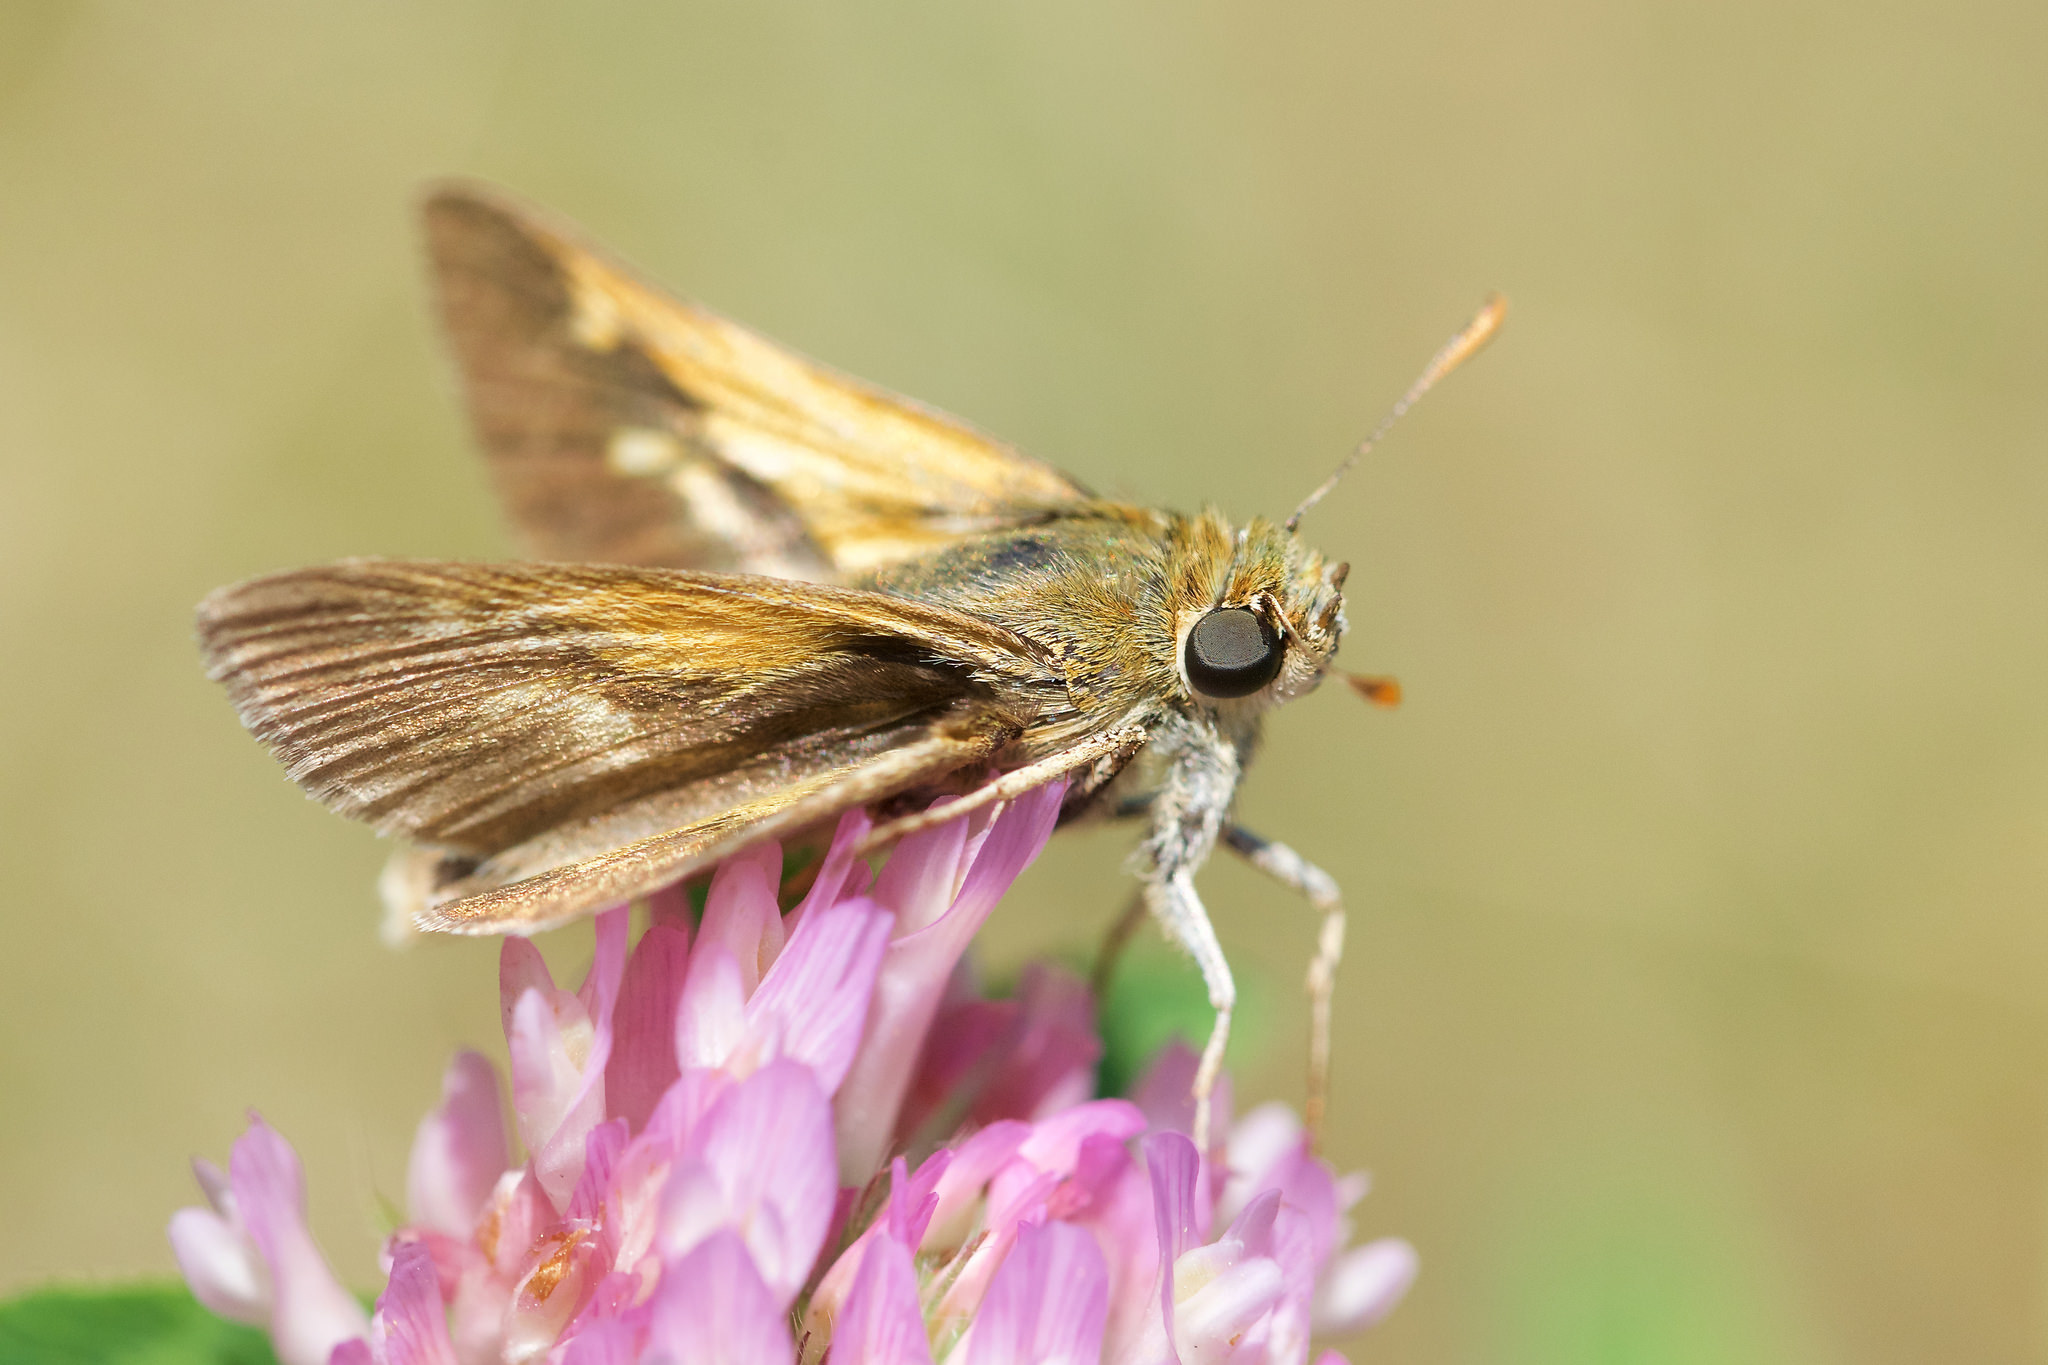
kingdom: Animalia
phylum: Arthropoda
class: Insecta
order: Lepidoptera
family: Hesperiidae
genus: Polites
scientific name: Polites origenes
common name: Crossline skipper
